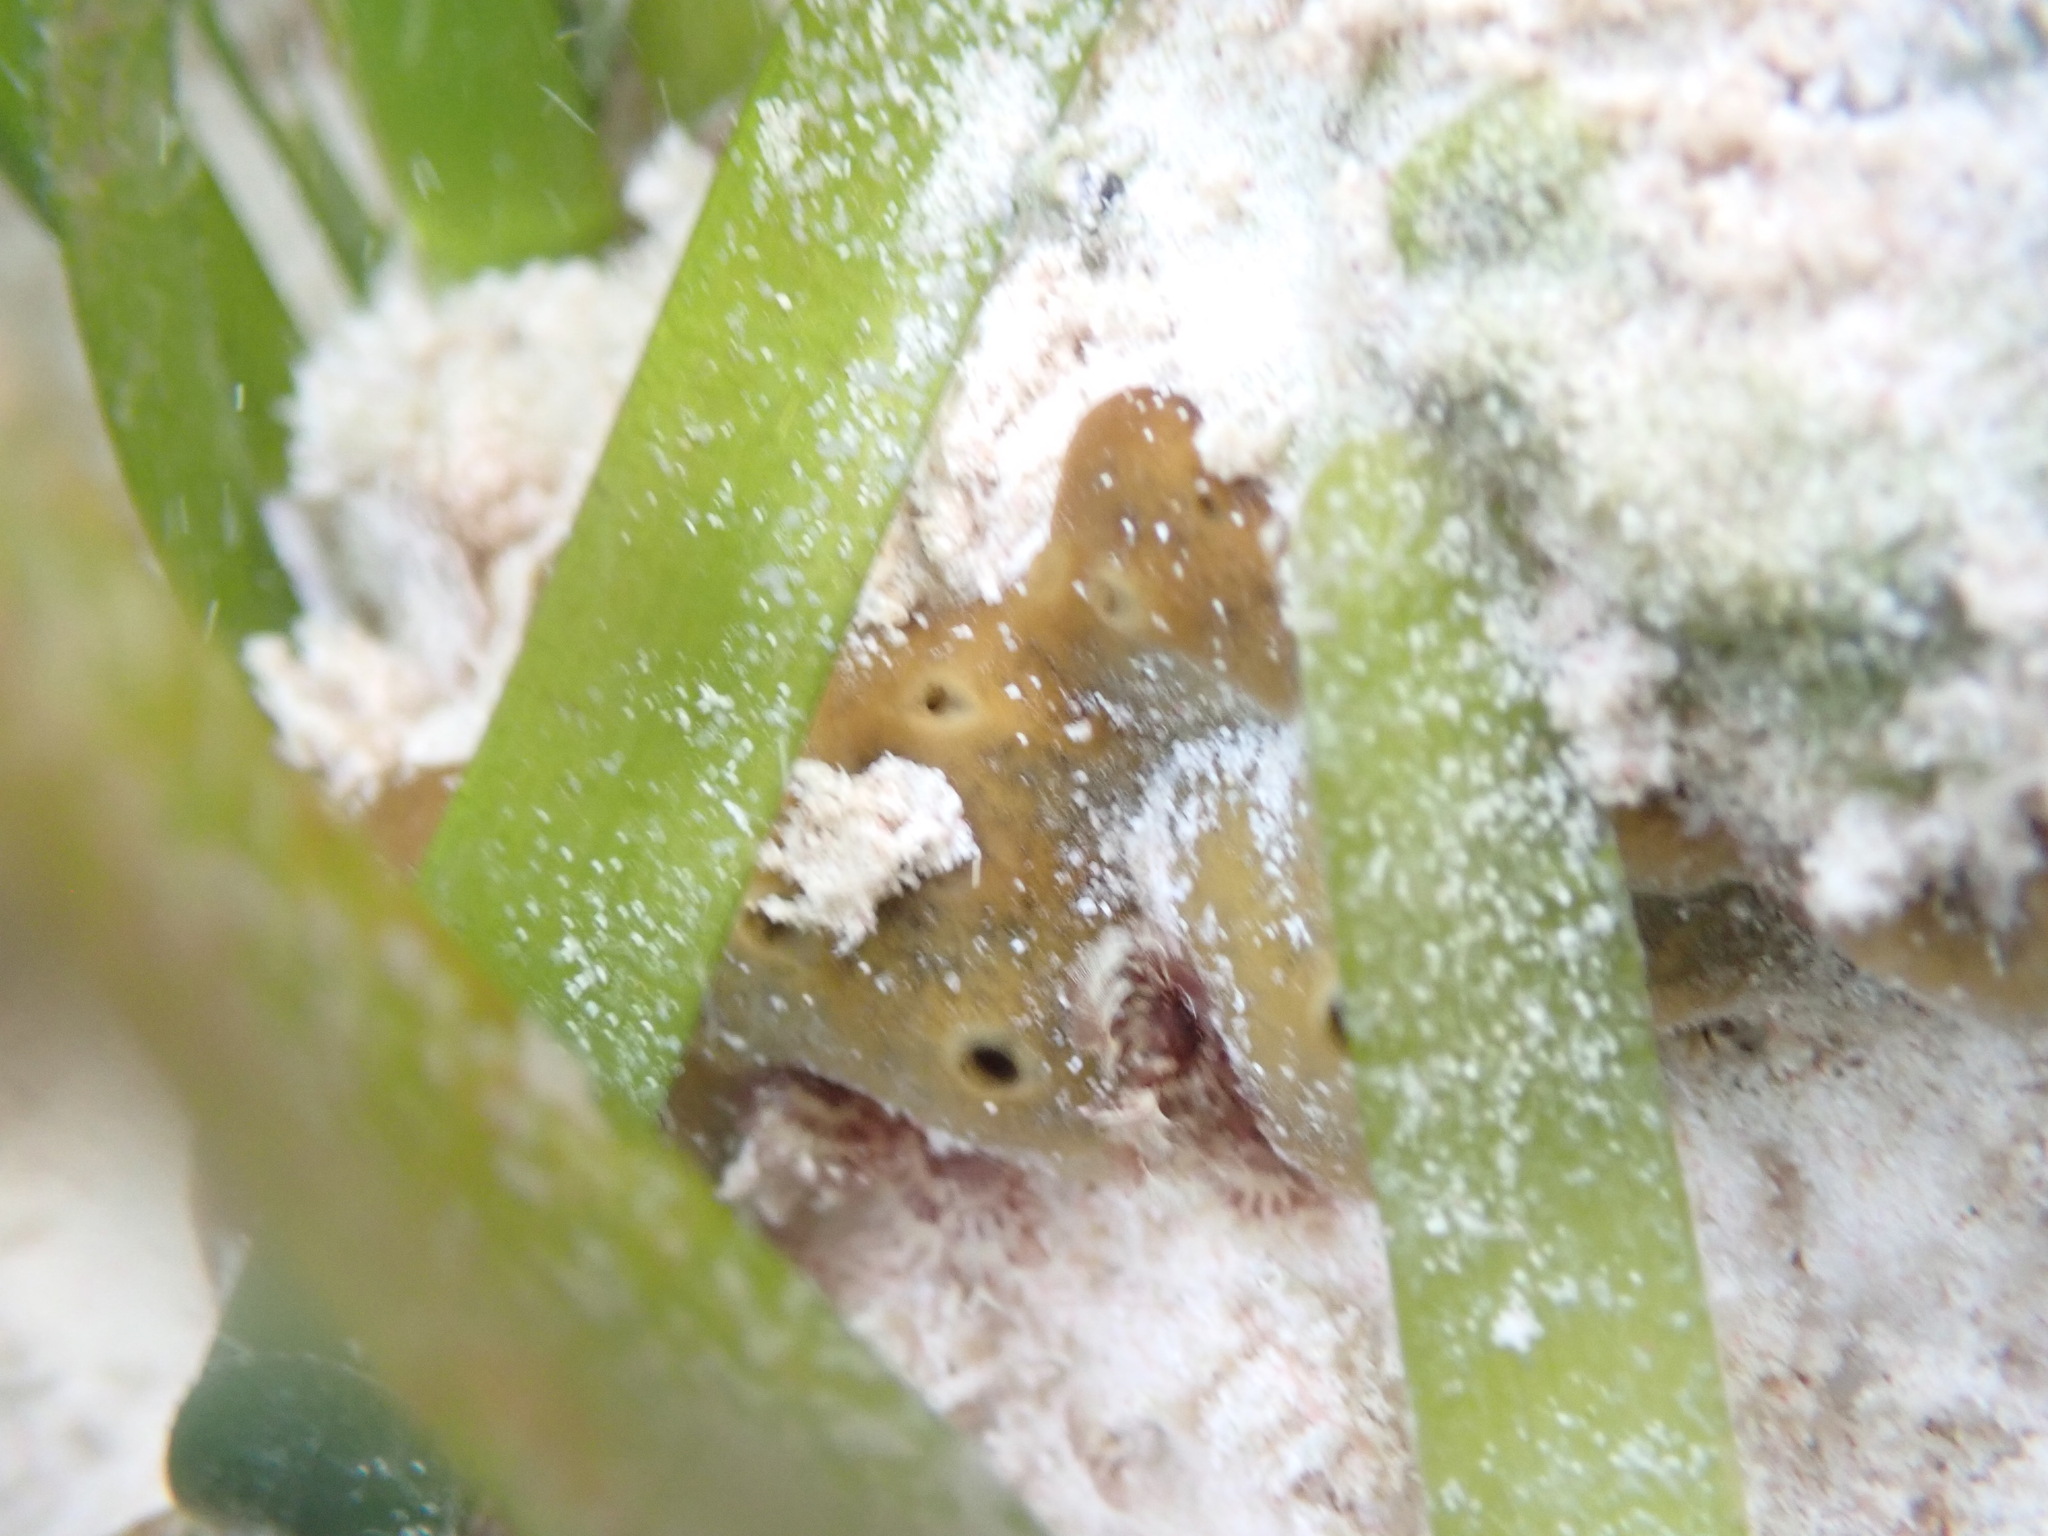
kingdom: Animalia
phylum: Porifera
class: Demospongiae
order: Chondrillida
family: Chondrillidae
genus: Chondrilla
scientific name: Chondrilla nucula
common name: Chicken liver sponge
